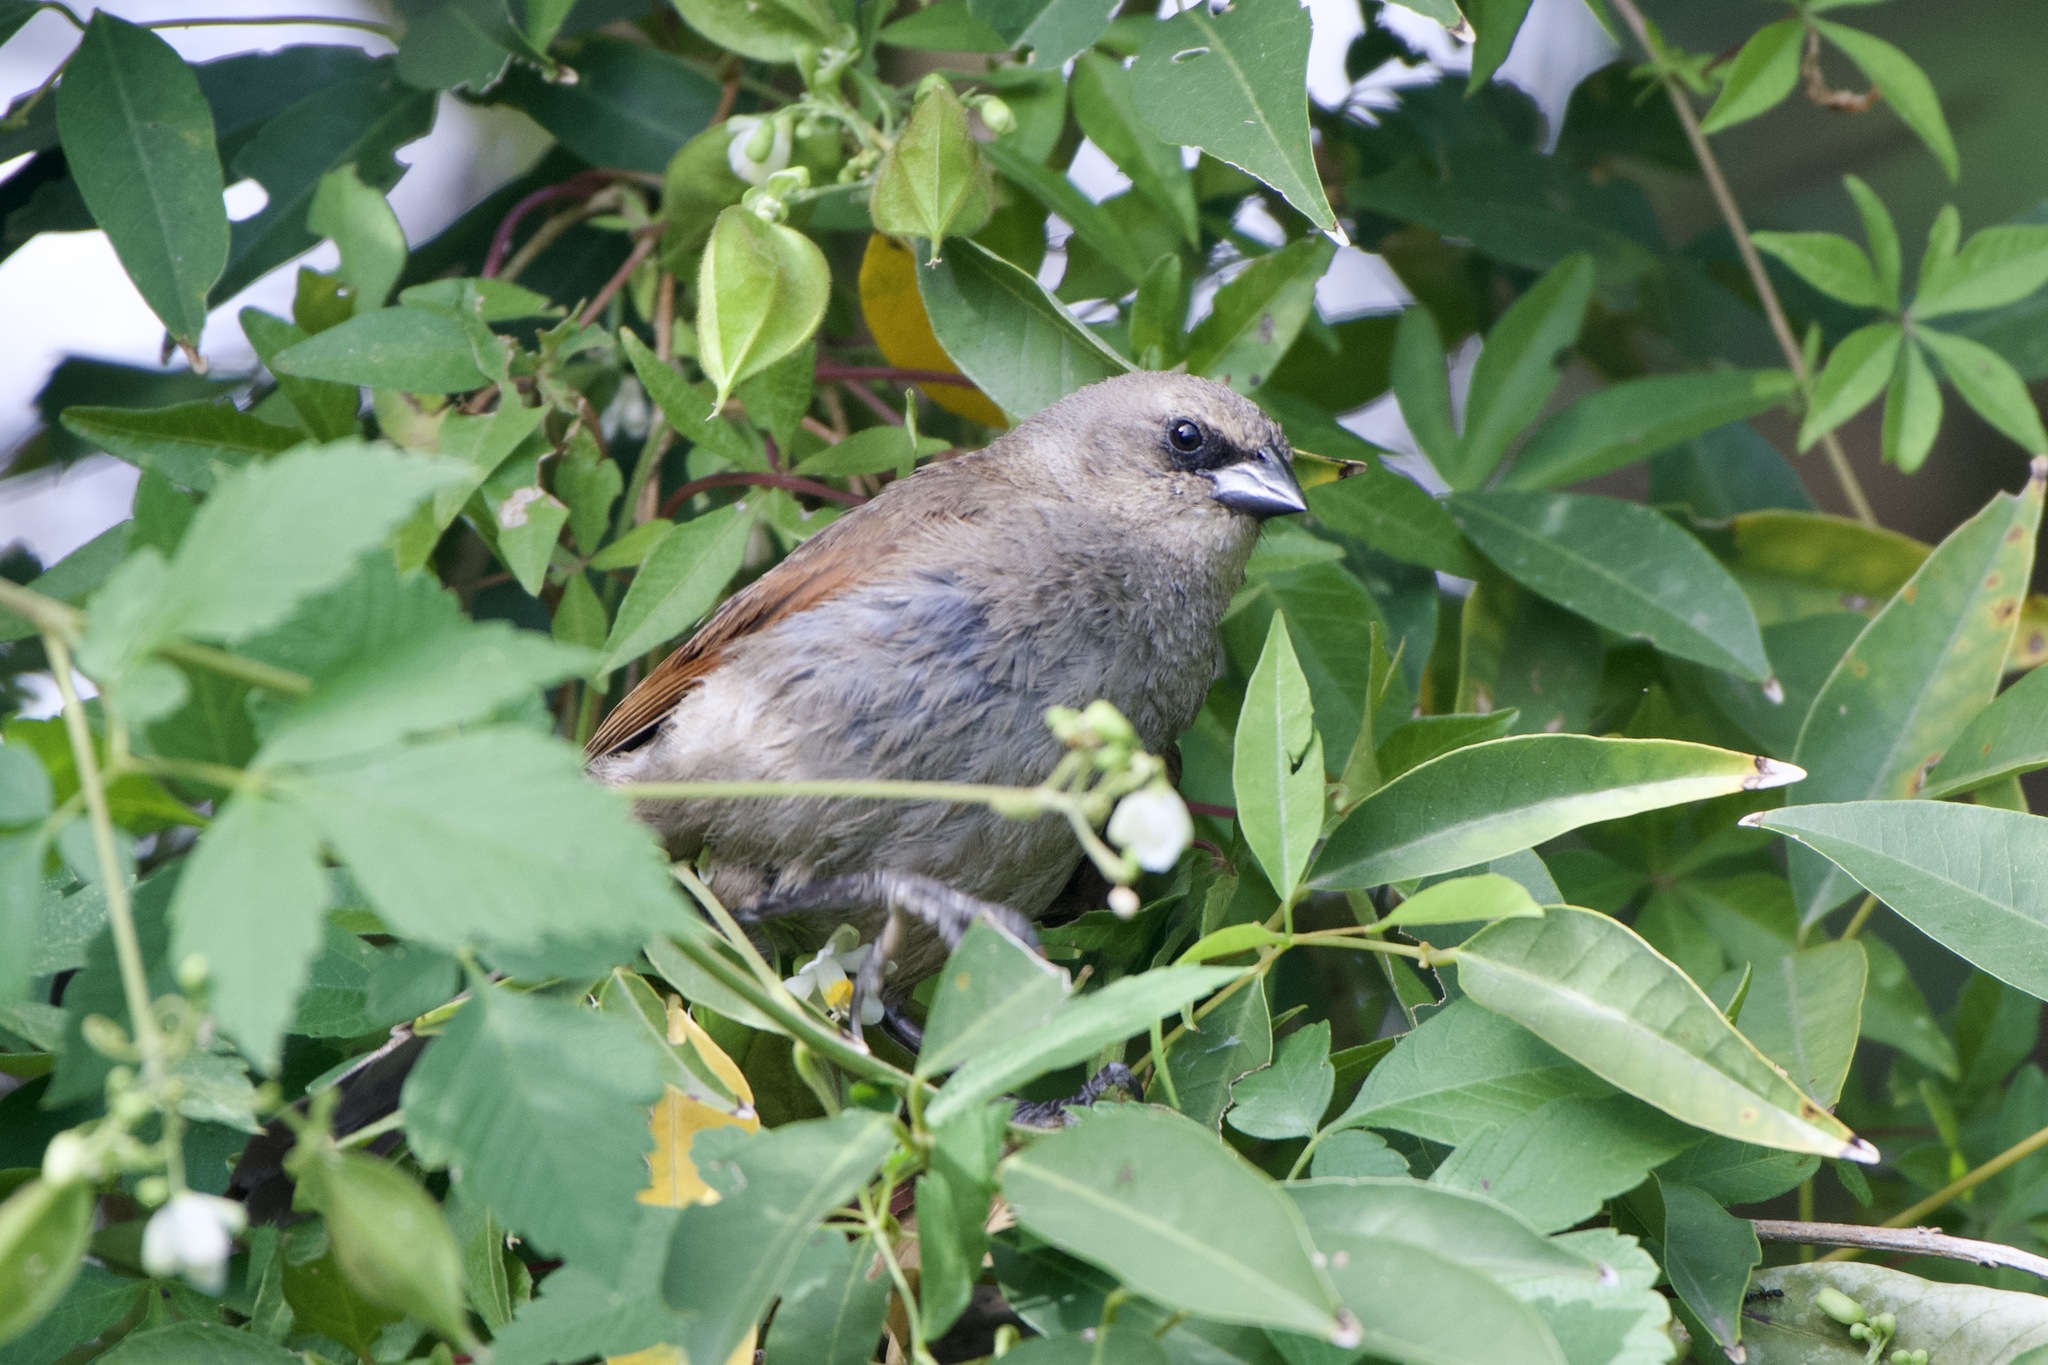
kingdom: Animalia
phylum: Chordata
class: Aves
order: Passeriformes
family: Icteridae
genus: Agelaioides
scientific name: Agelaioides badius
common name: Baywing
